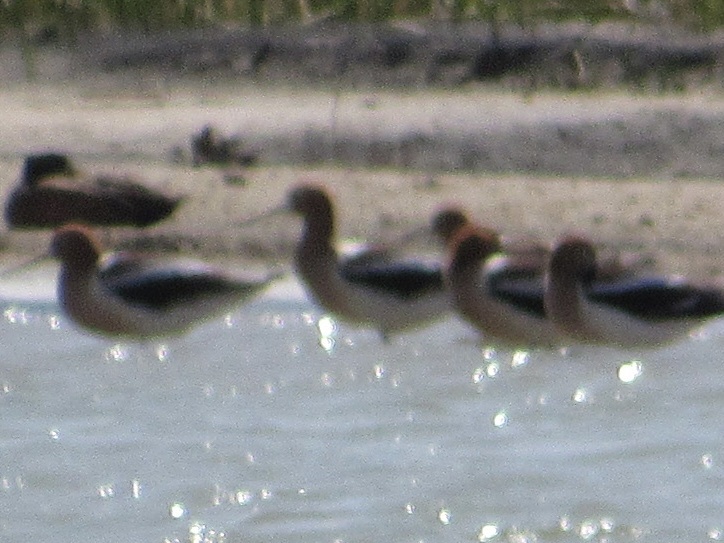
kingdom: Animalia
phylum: Chordata
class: Aves
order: Charadriiformes
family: Recurvirostridae
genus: Recurvirostra
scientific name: Recurvirostra americana
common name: American avocet
